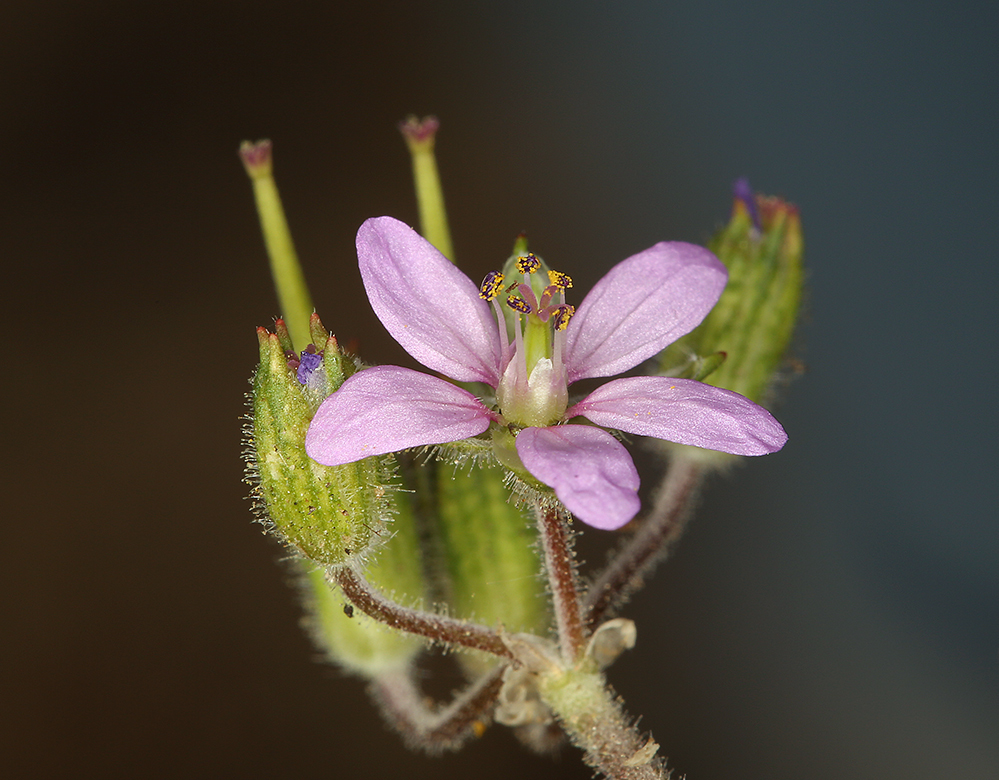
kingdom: Plantae
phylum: Tracheophyta
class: Magnoliopsida
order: Geraniales
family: Geraniaceae
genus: Erodium
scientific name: Erodium moschatum
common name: Musk stork's-bill
